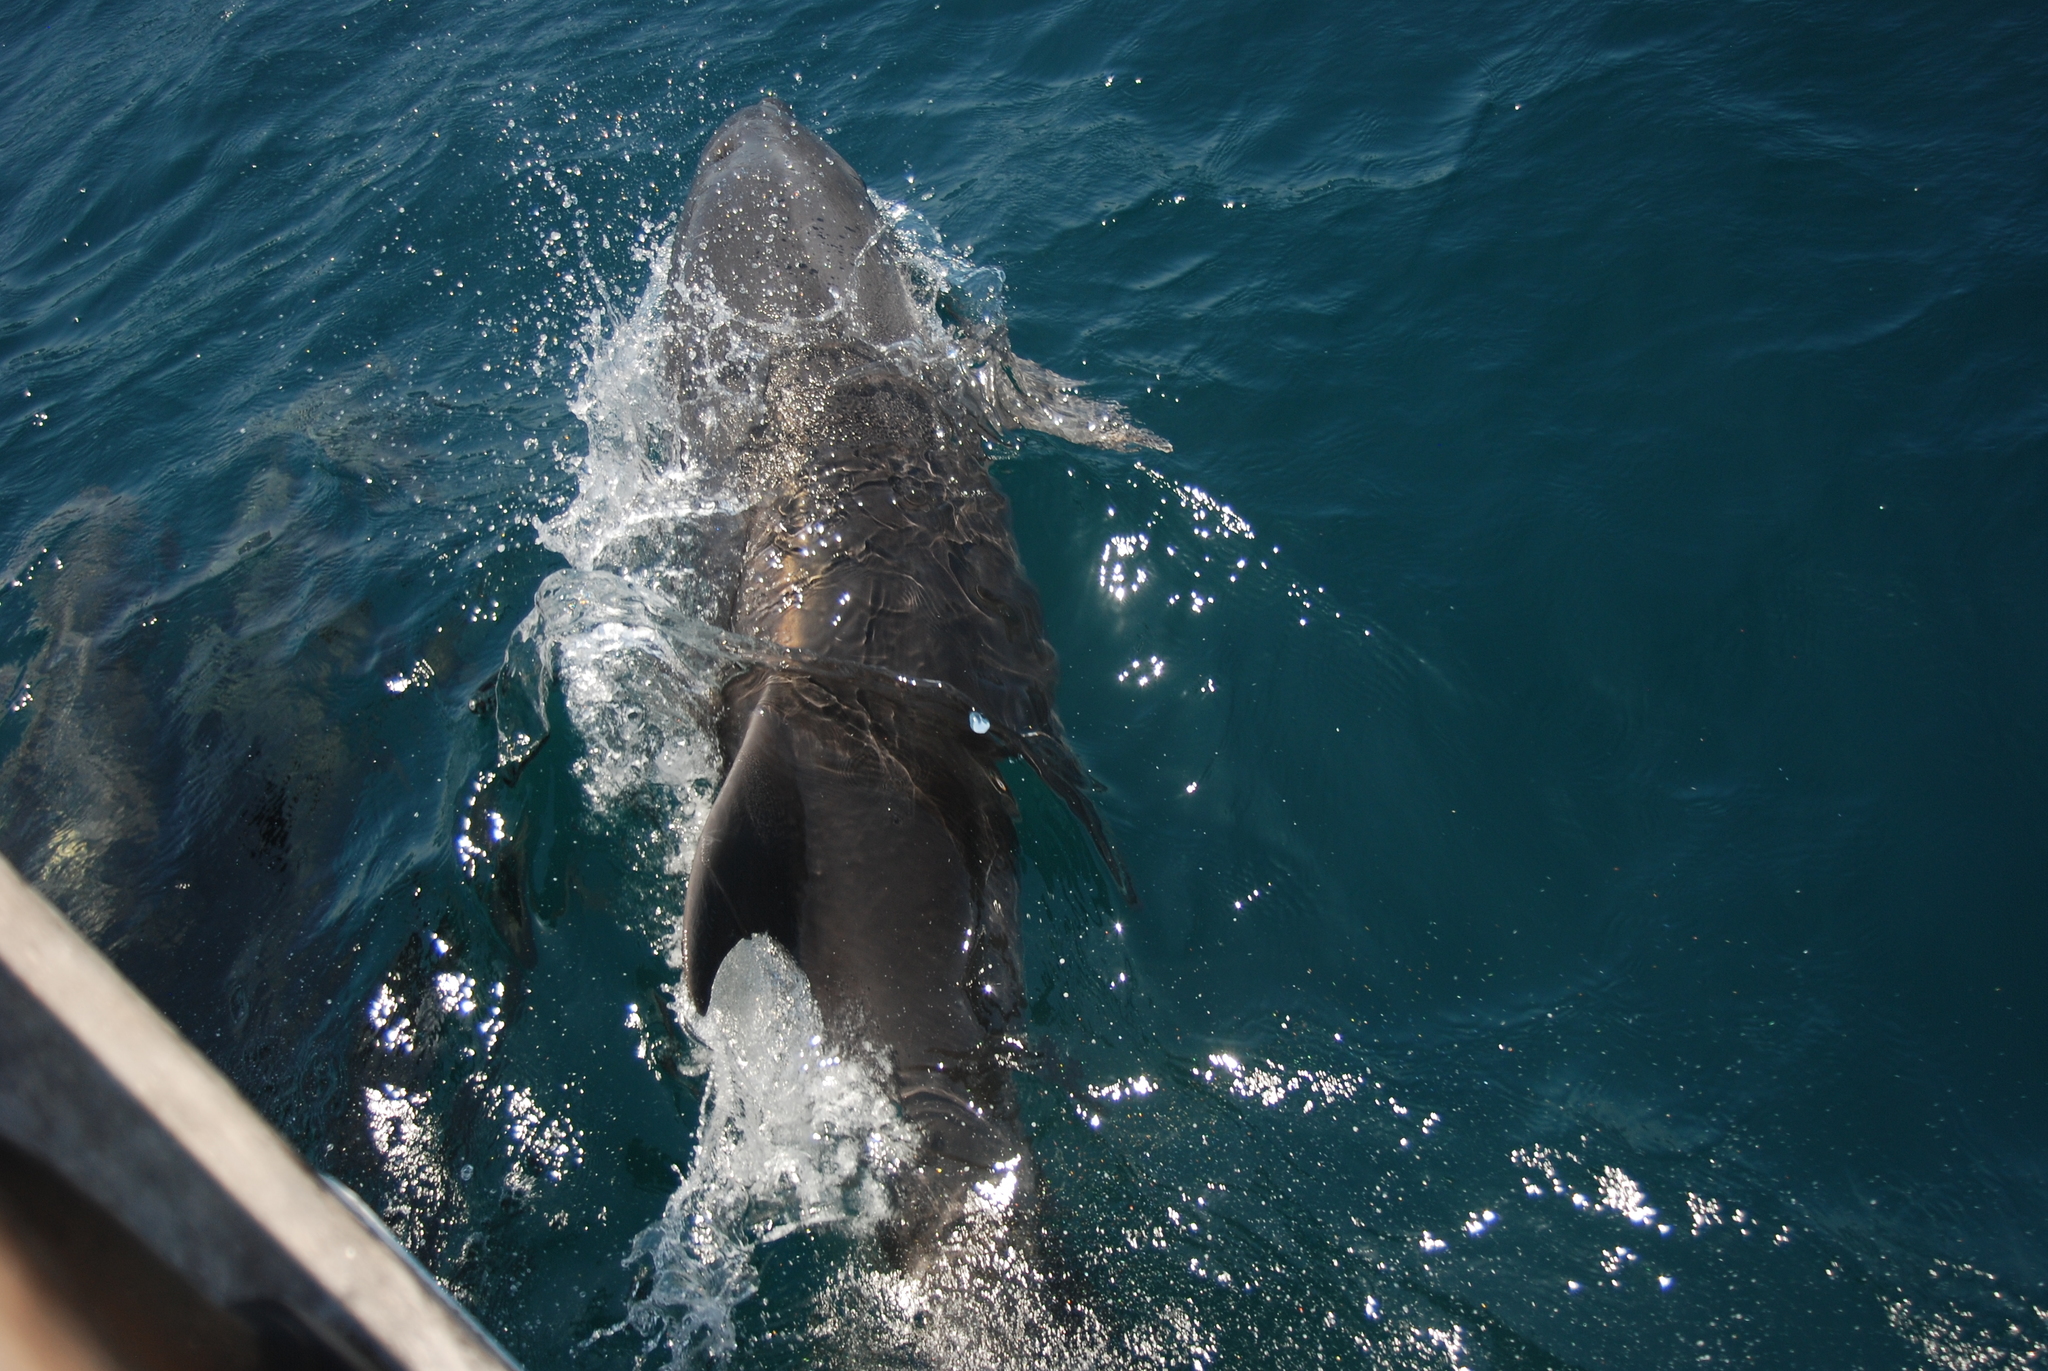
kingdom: Animalia
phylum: Chordata
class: Mammalia
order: Cetacea
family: Delphinidae
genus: Tursiops
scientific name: Tursiops truncatus
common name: Bottlenose dolphin
